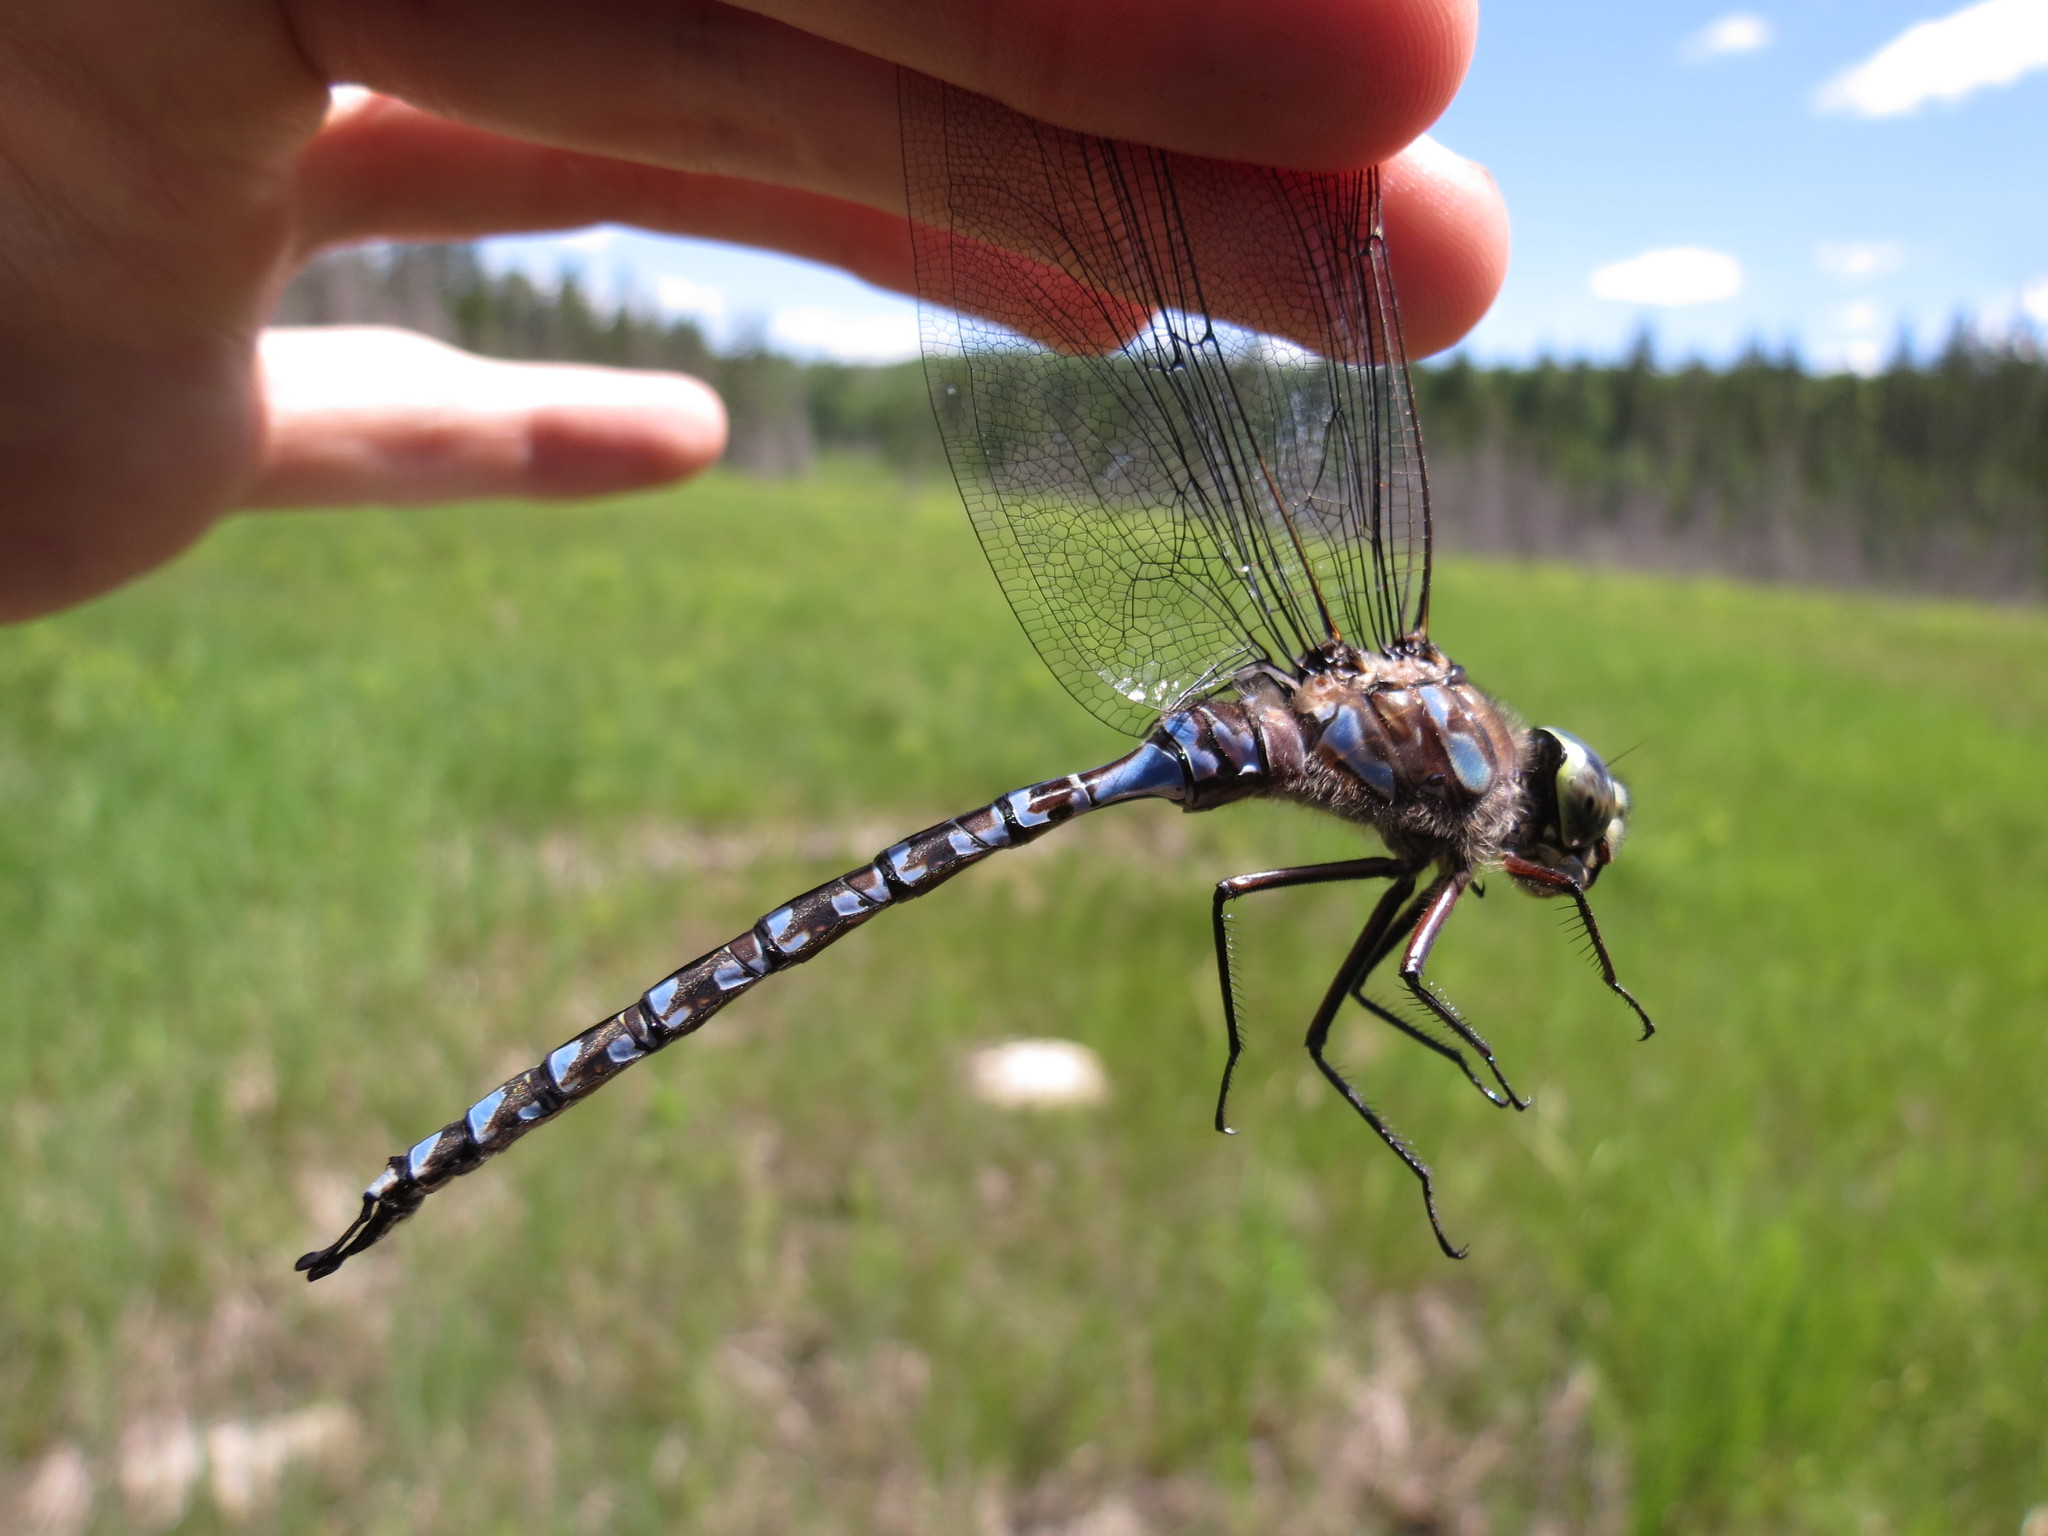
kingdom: Animalia
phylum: Arthropoda
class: Insecta
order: Odonata
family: Aeshnidae
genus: Aeshna
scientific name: Aeshna eremita
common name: Lake darner
